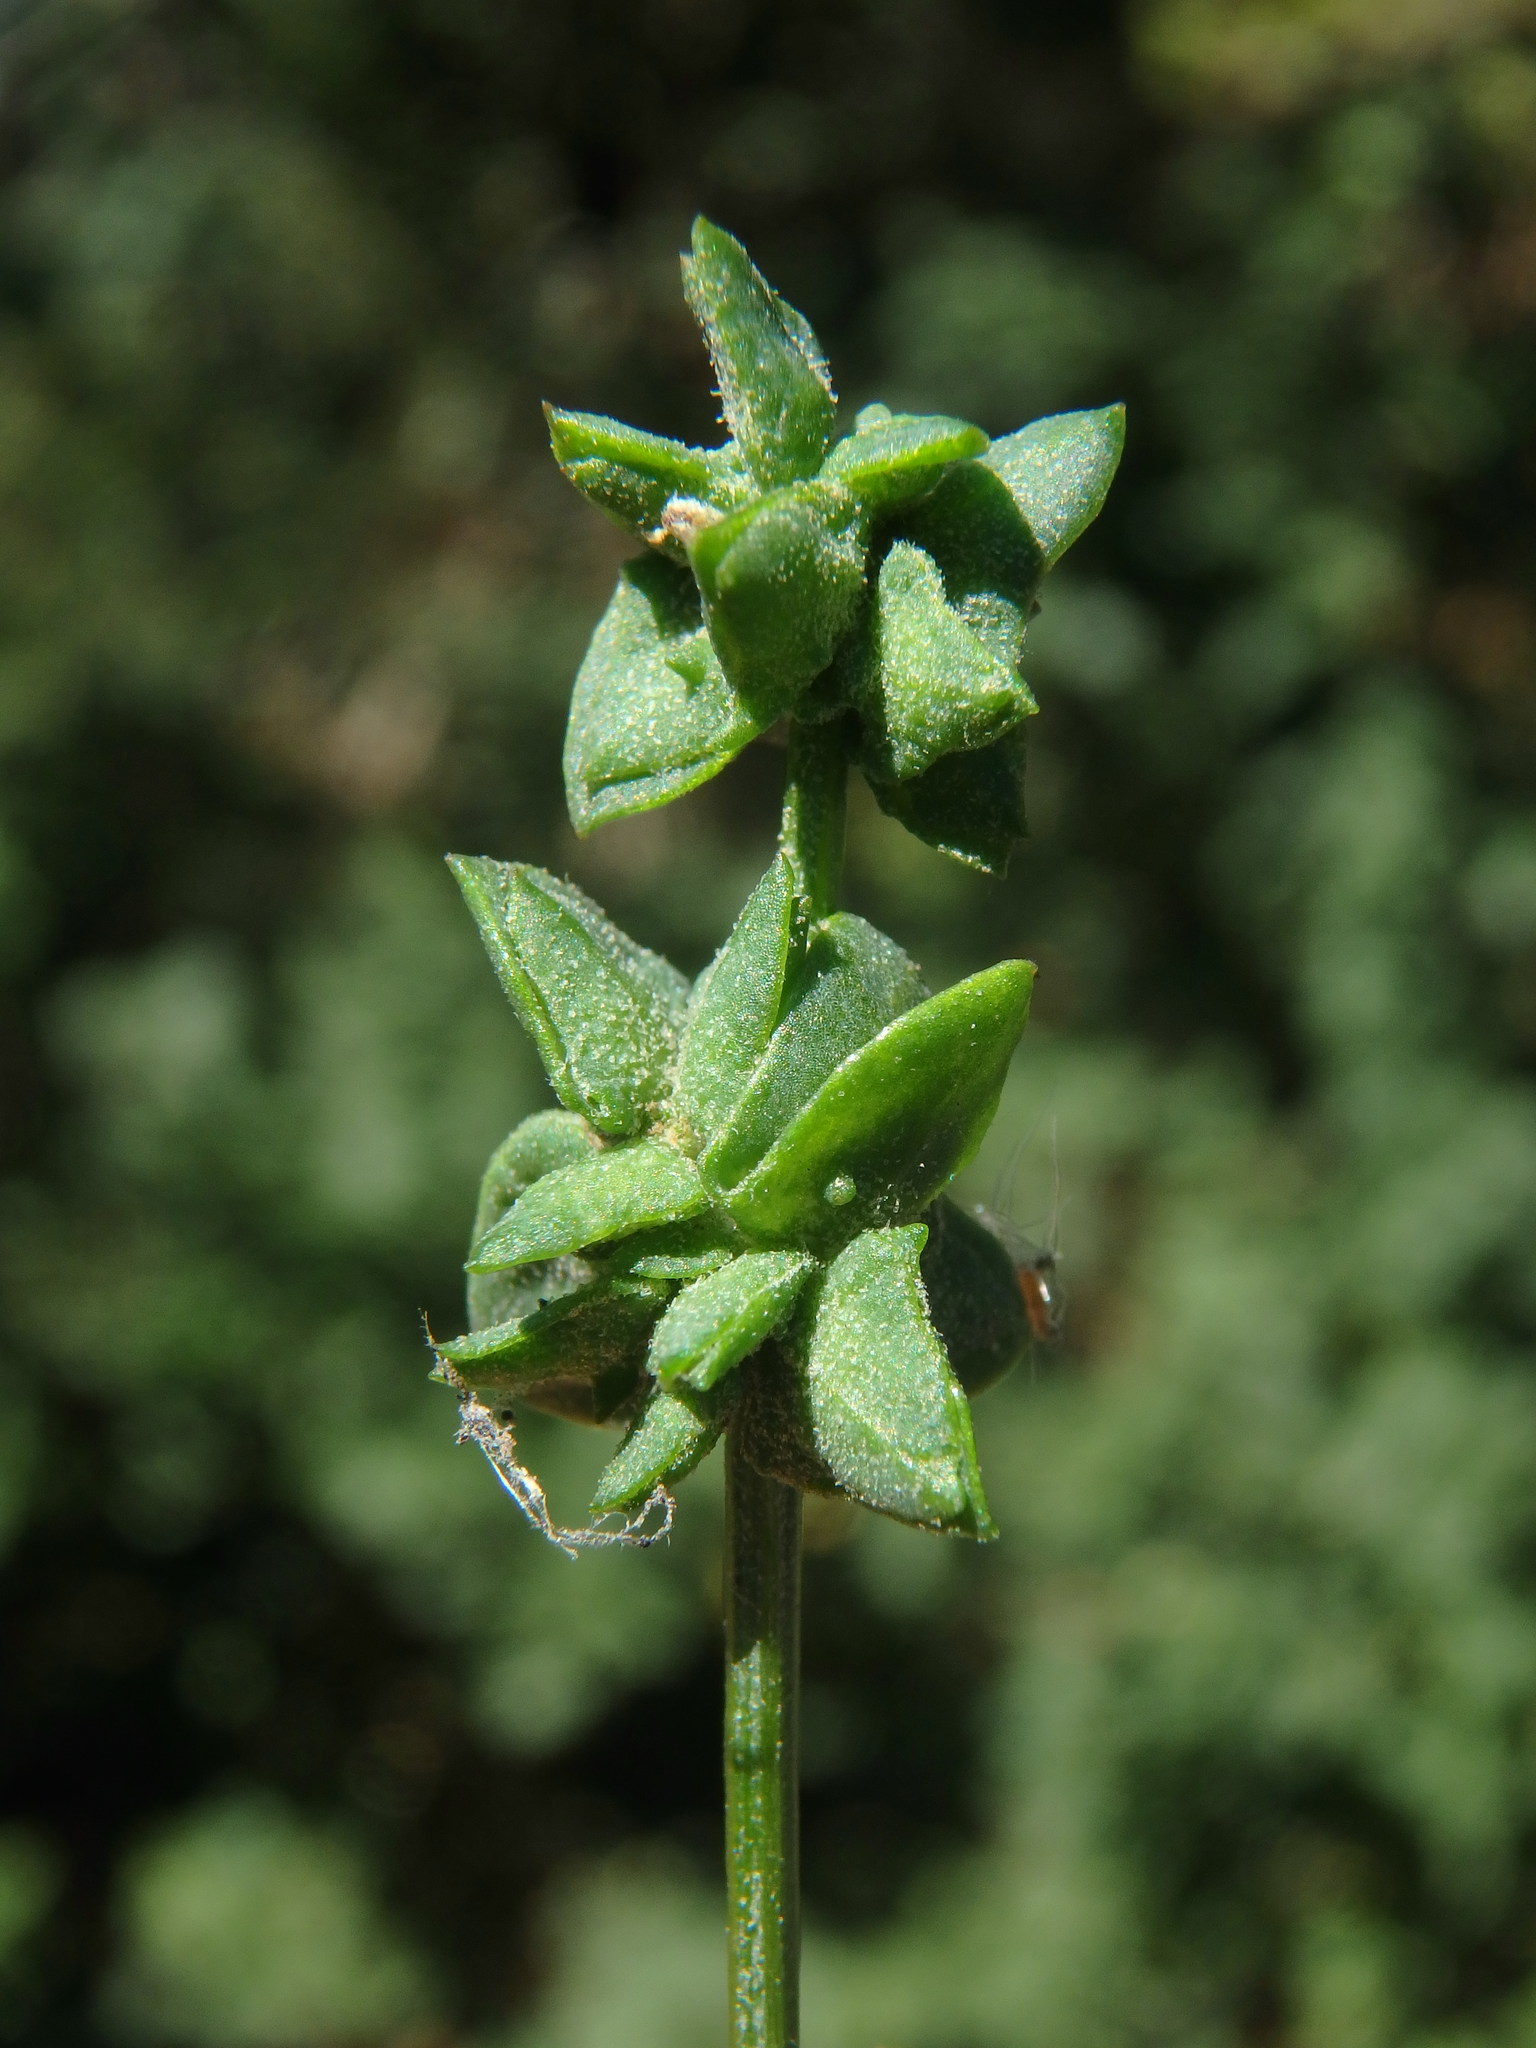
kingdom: Plantae
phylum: Tracheophyta
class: Magnoliopsida
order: Caryophyllales
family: Amaranthaceae
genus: Atriplex
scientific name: Atriplex patula
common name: Common orache
